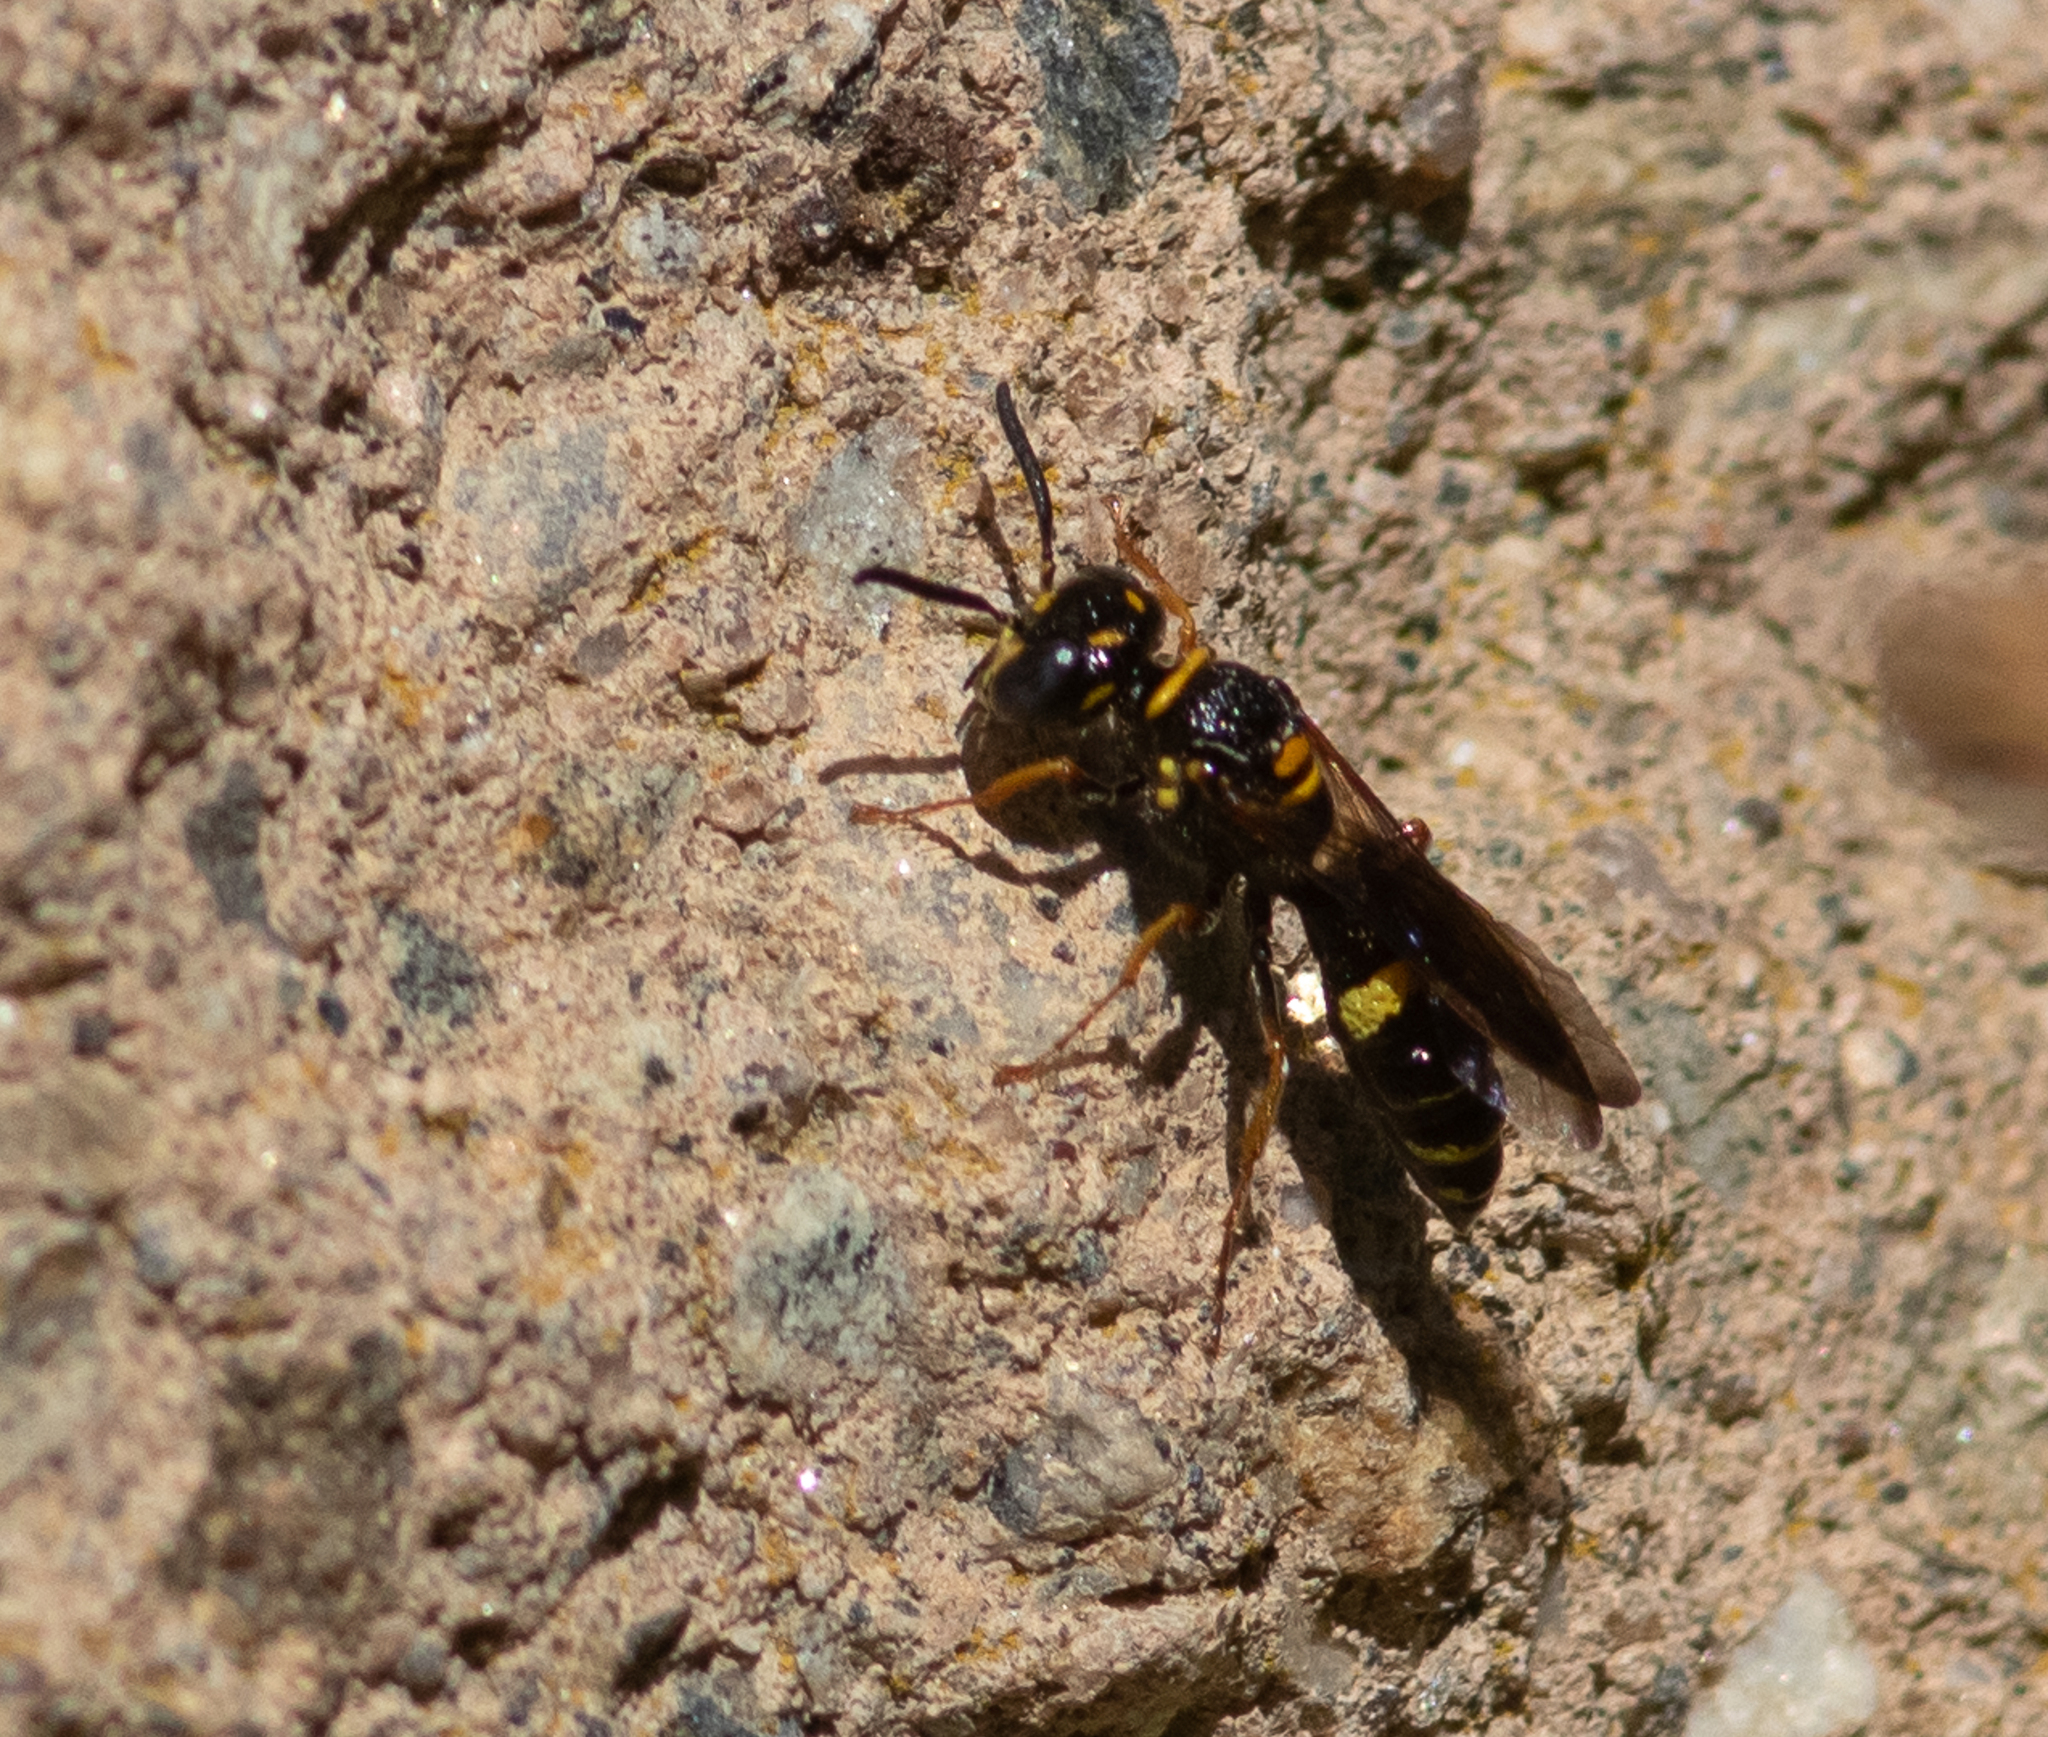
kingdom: Animalia
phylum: Arthropoda
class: Insecta
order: Hymenoptera
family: Crabronidae
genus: Philanthus
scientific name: Philanthus gibbosus
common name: Humped beewolf
